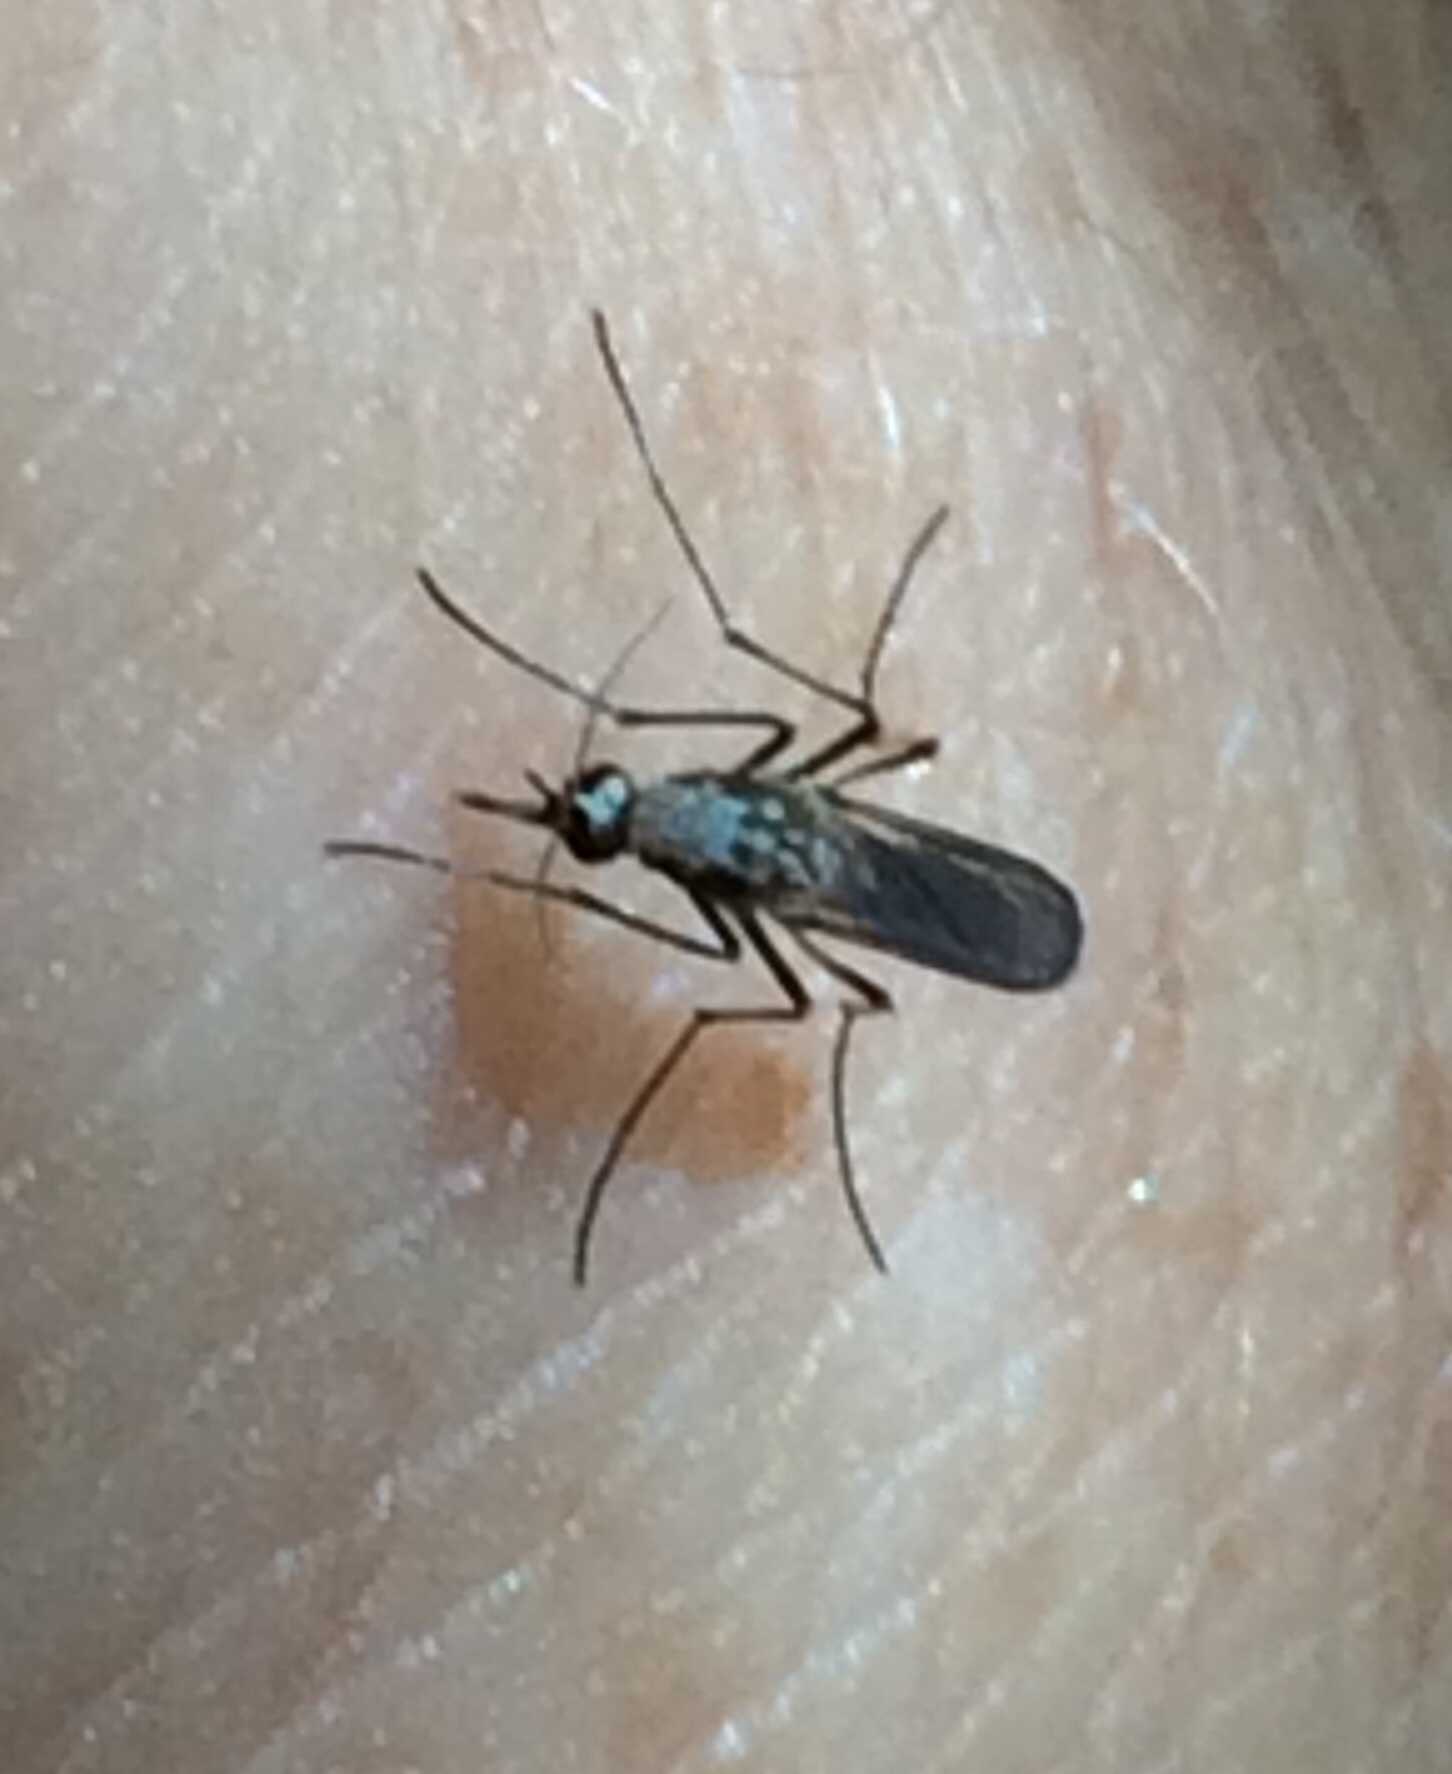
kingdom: Animalia
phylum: Arthropoda
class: Insecta
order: Diptera
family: Culicidae
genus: Aedes
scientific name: Aedes scapularis
